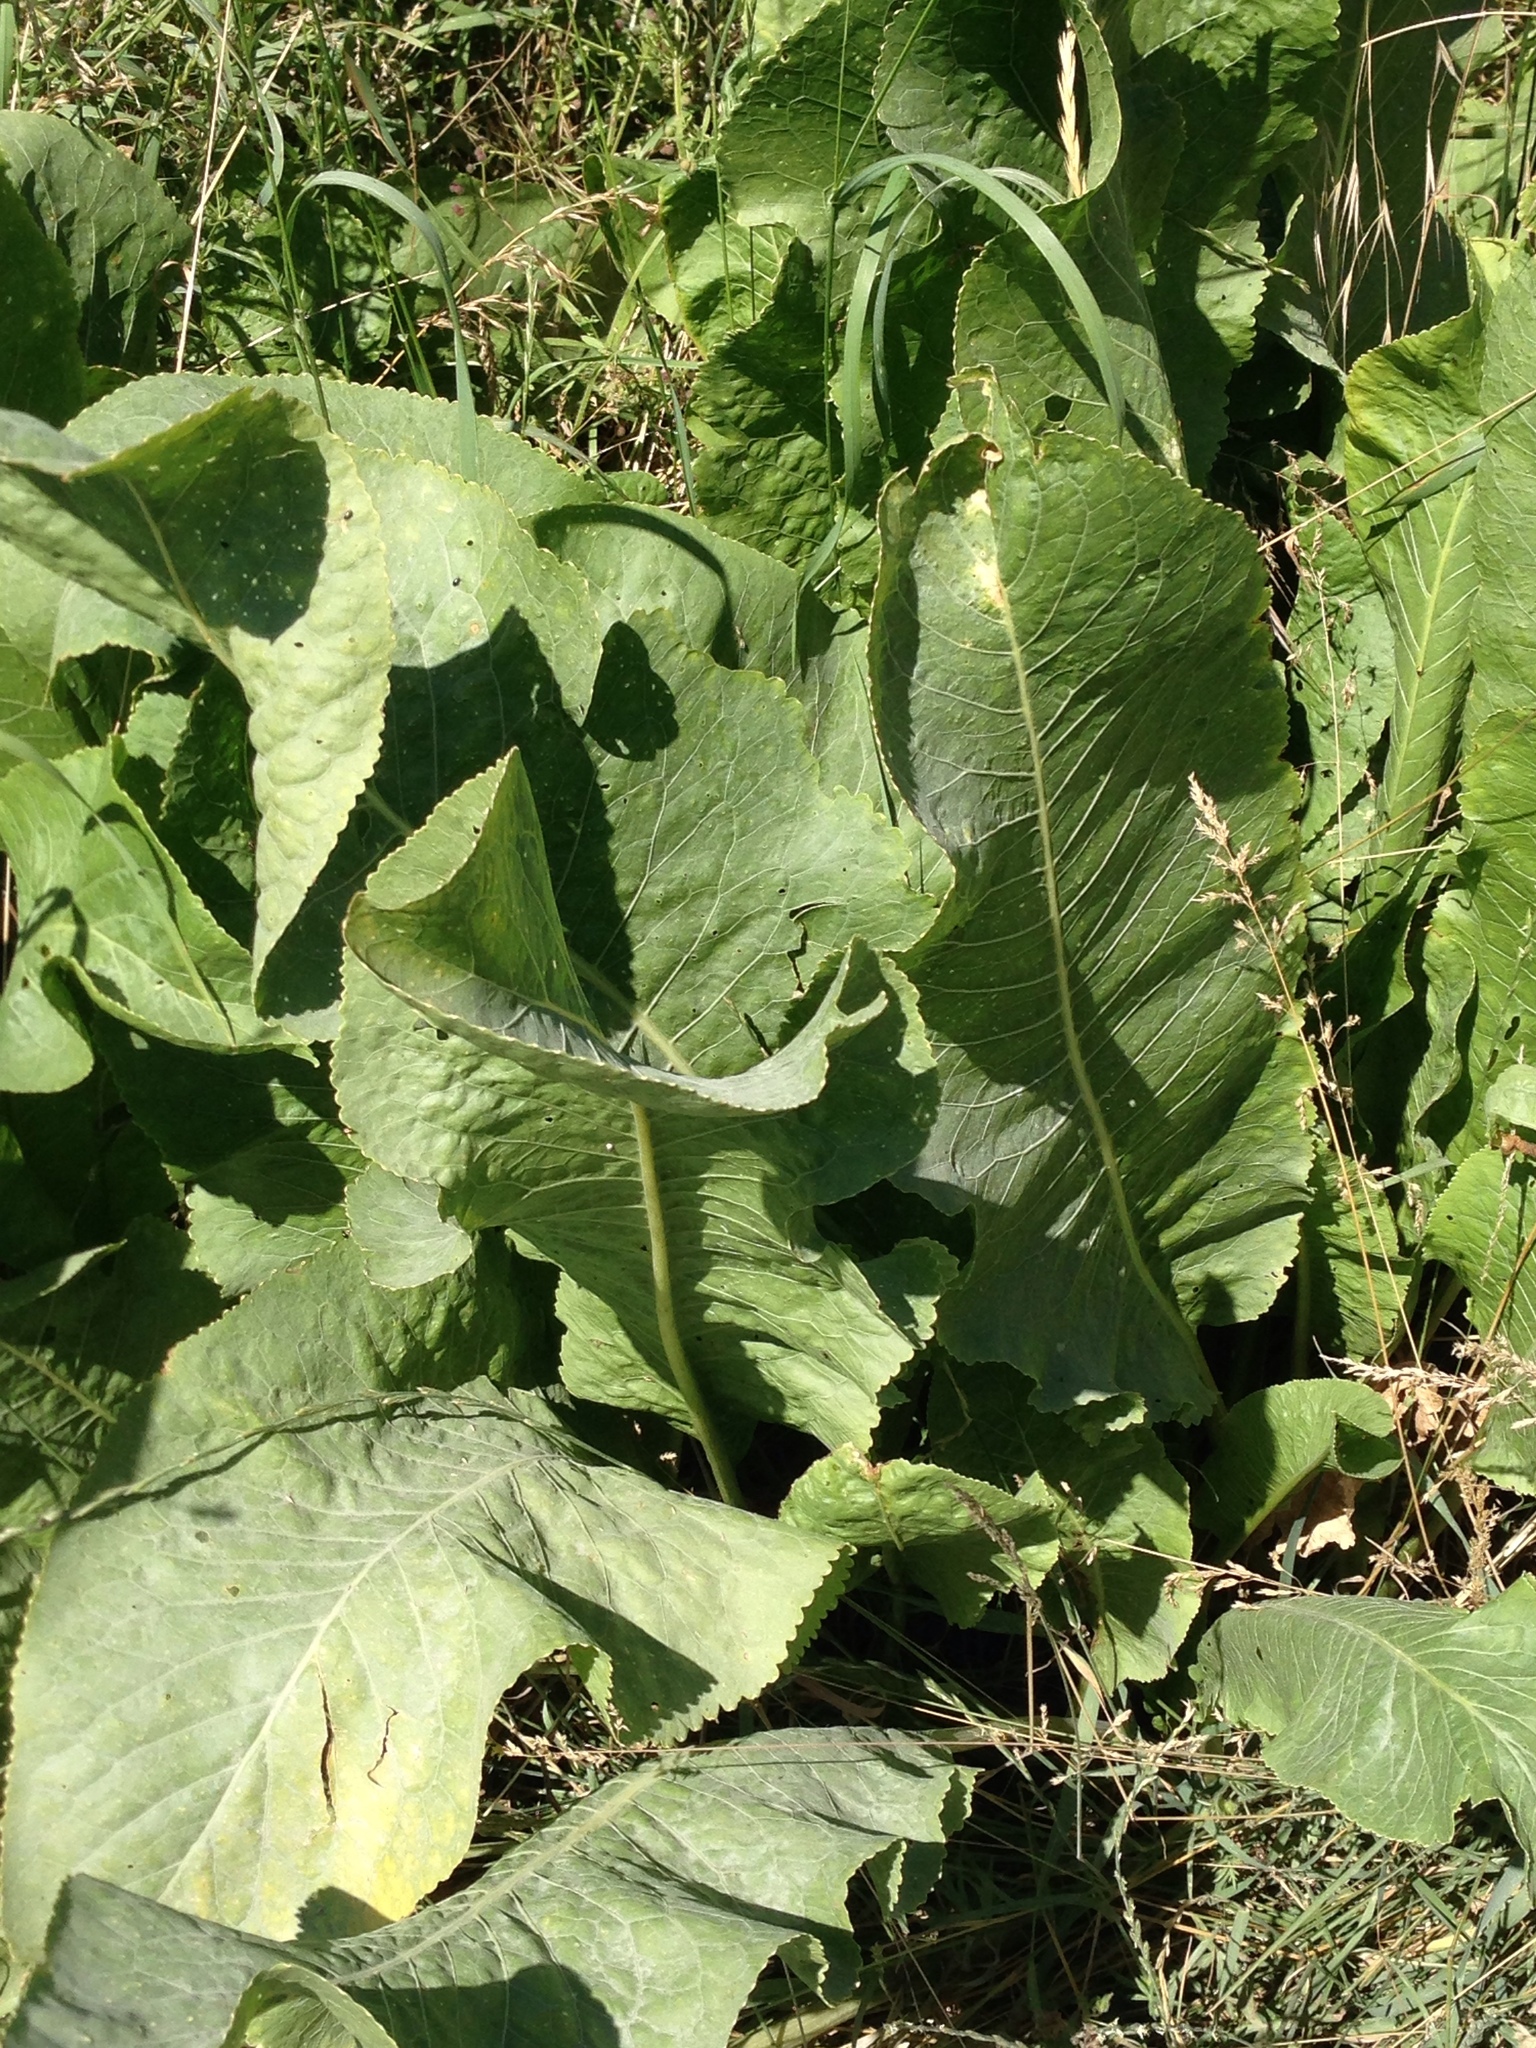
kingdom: Plantae
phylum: Tracheophyta
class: Magnoliopsida
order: Brassicales
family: Brassicaceae
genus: Armoracia
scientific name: Armoracia rusticana
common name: Horseradish
